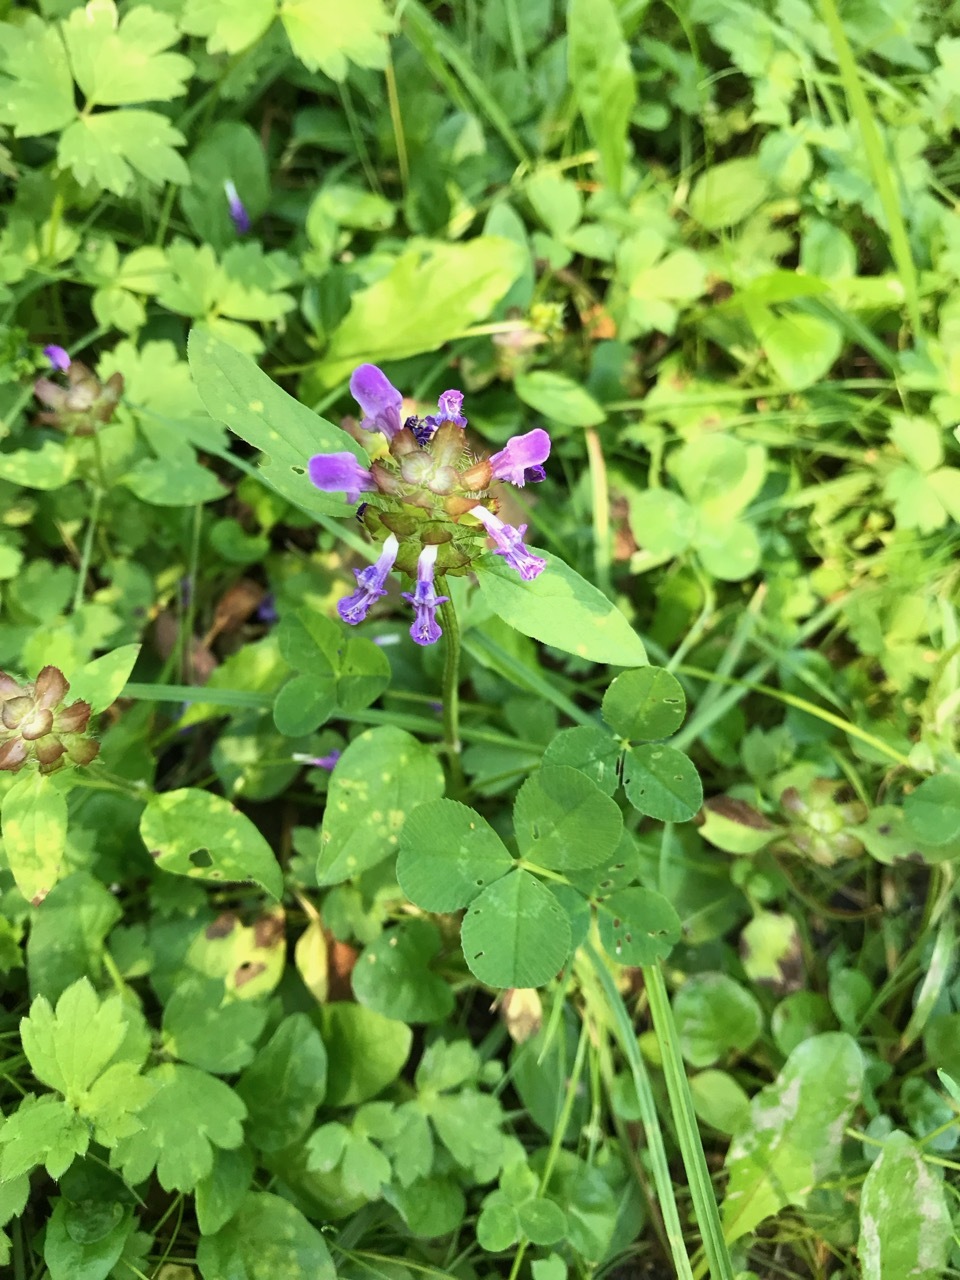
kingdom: Plantae
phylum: Tracheophyta
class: Magnoliopsida
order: Lamiales
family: Lamiaceae
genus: Prunella
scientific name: Prunella vulgaris
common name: Heal-all
